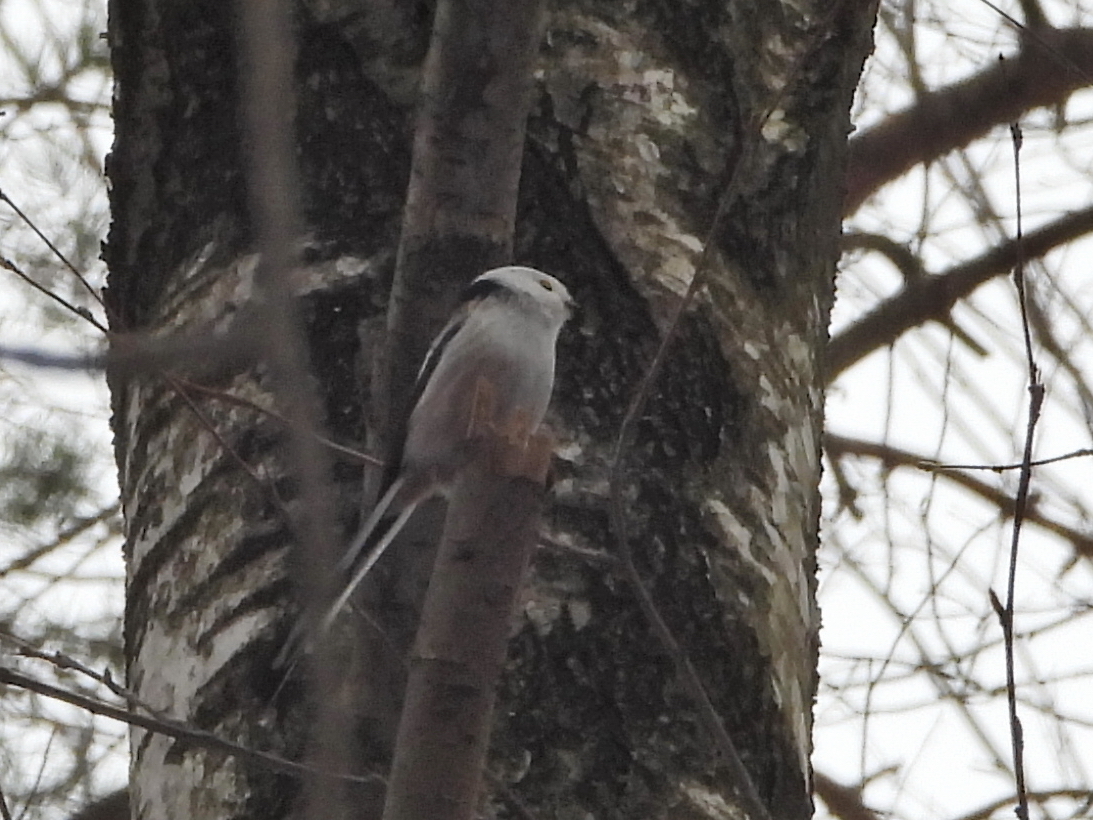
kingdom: Animalia
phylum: Chordata
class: Aves
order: Passeriformes
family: Aegithalidae
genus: Aegithalos
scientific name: Aegithalos caudatus
